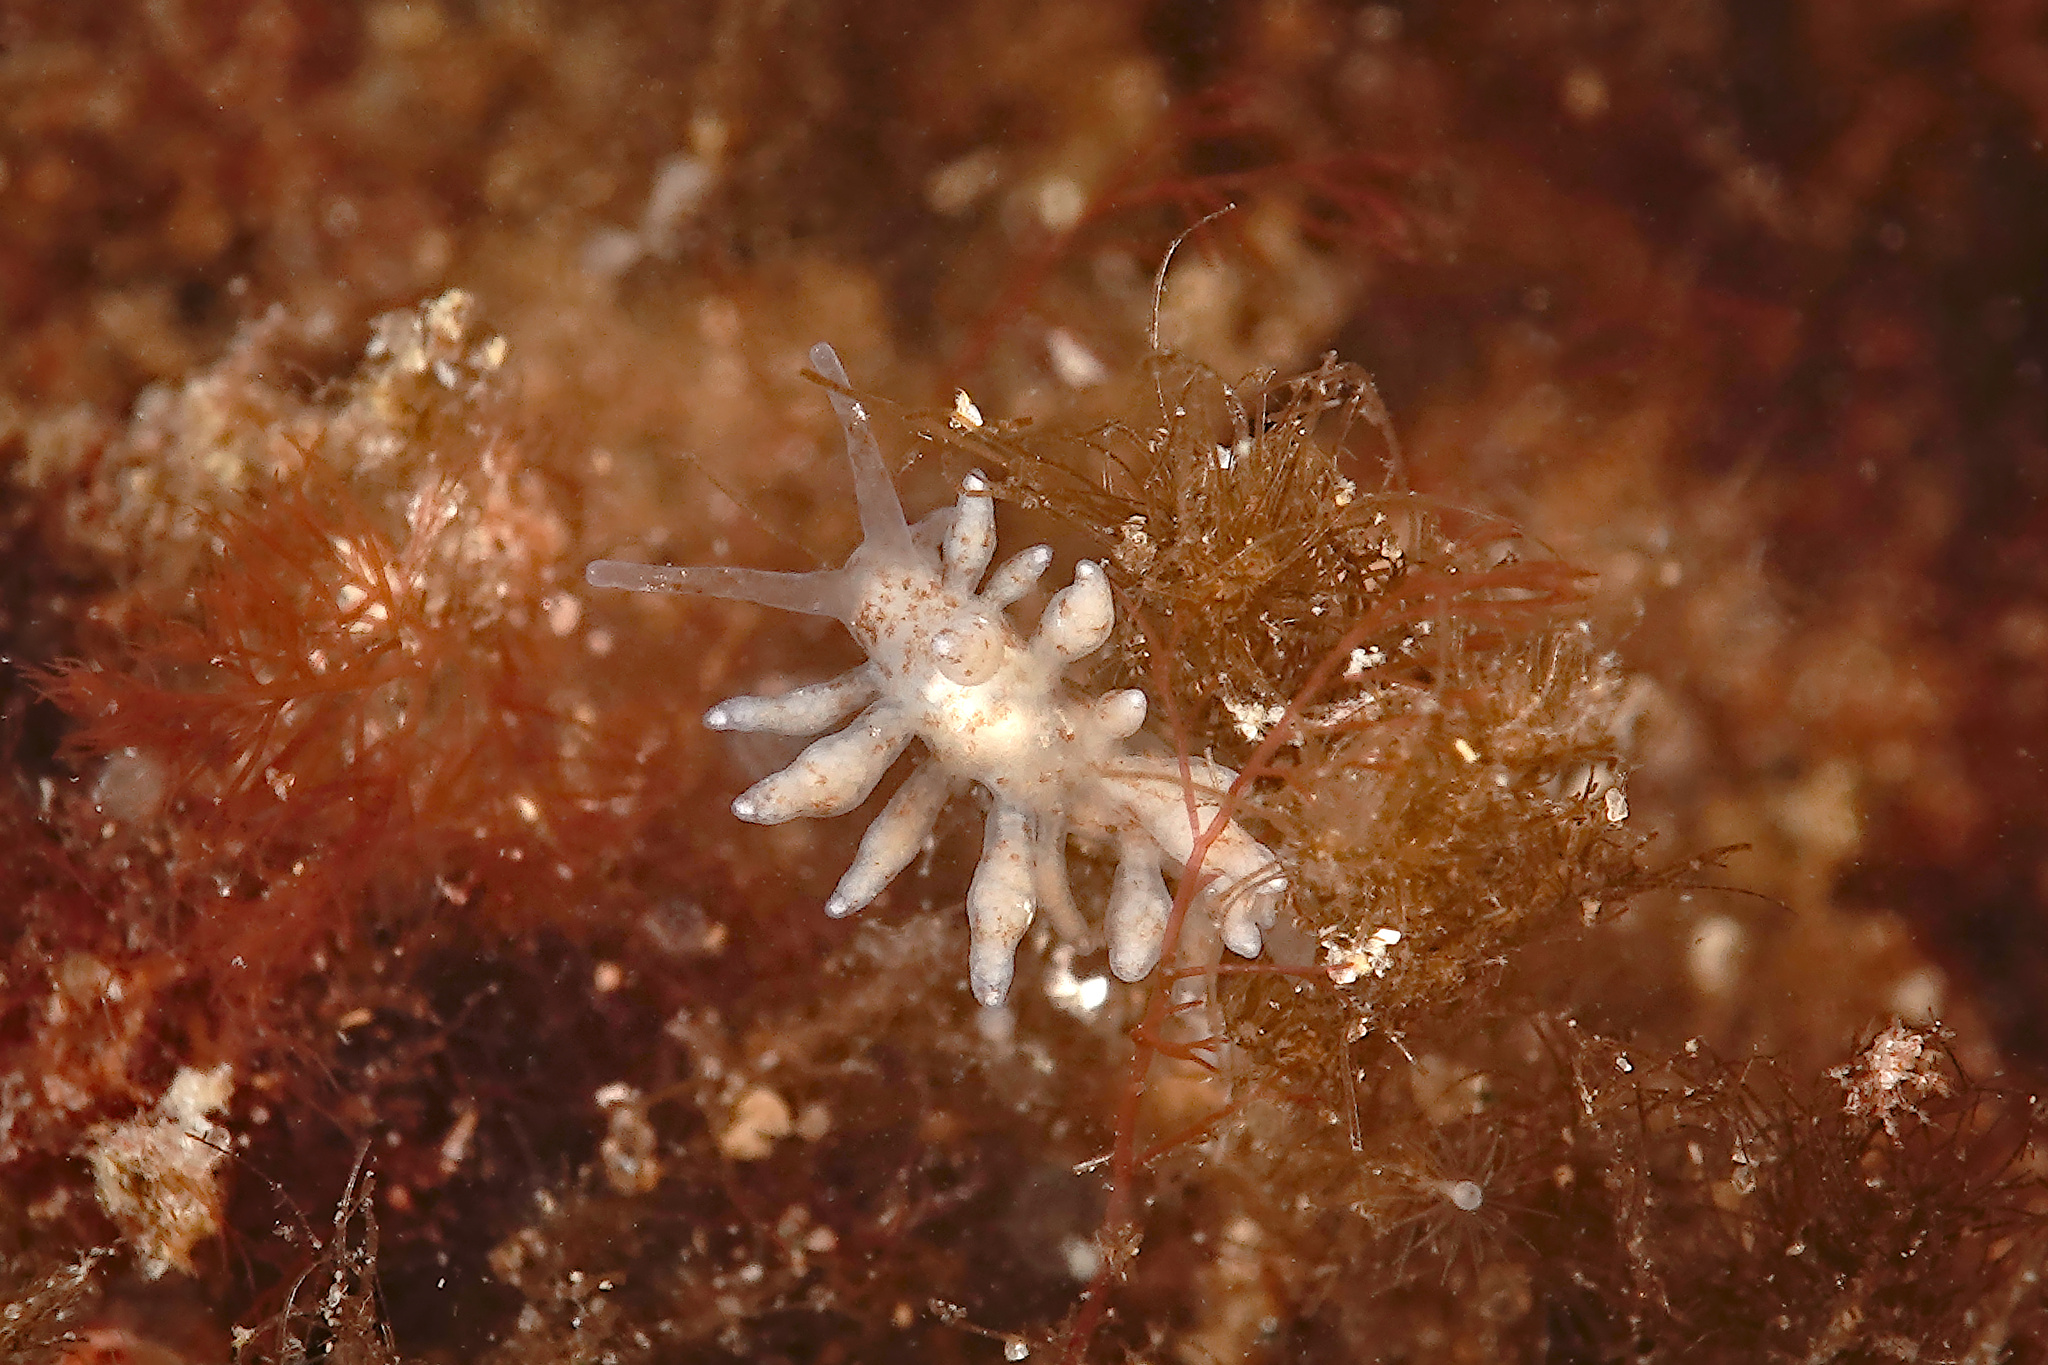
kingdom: Animalia
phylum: Mollusca
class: Gastropoda
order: Nudibranchia
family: Eubranchidae
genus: Eubranchus
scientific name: Eubranchus rupium
